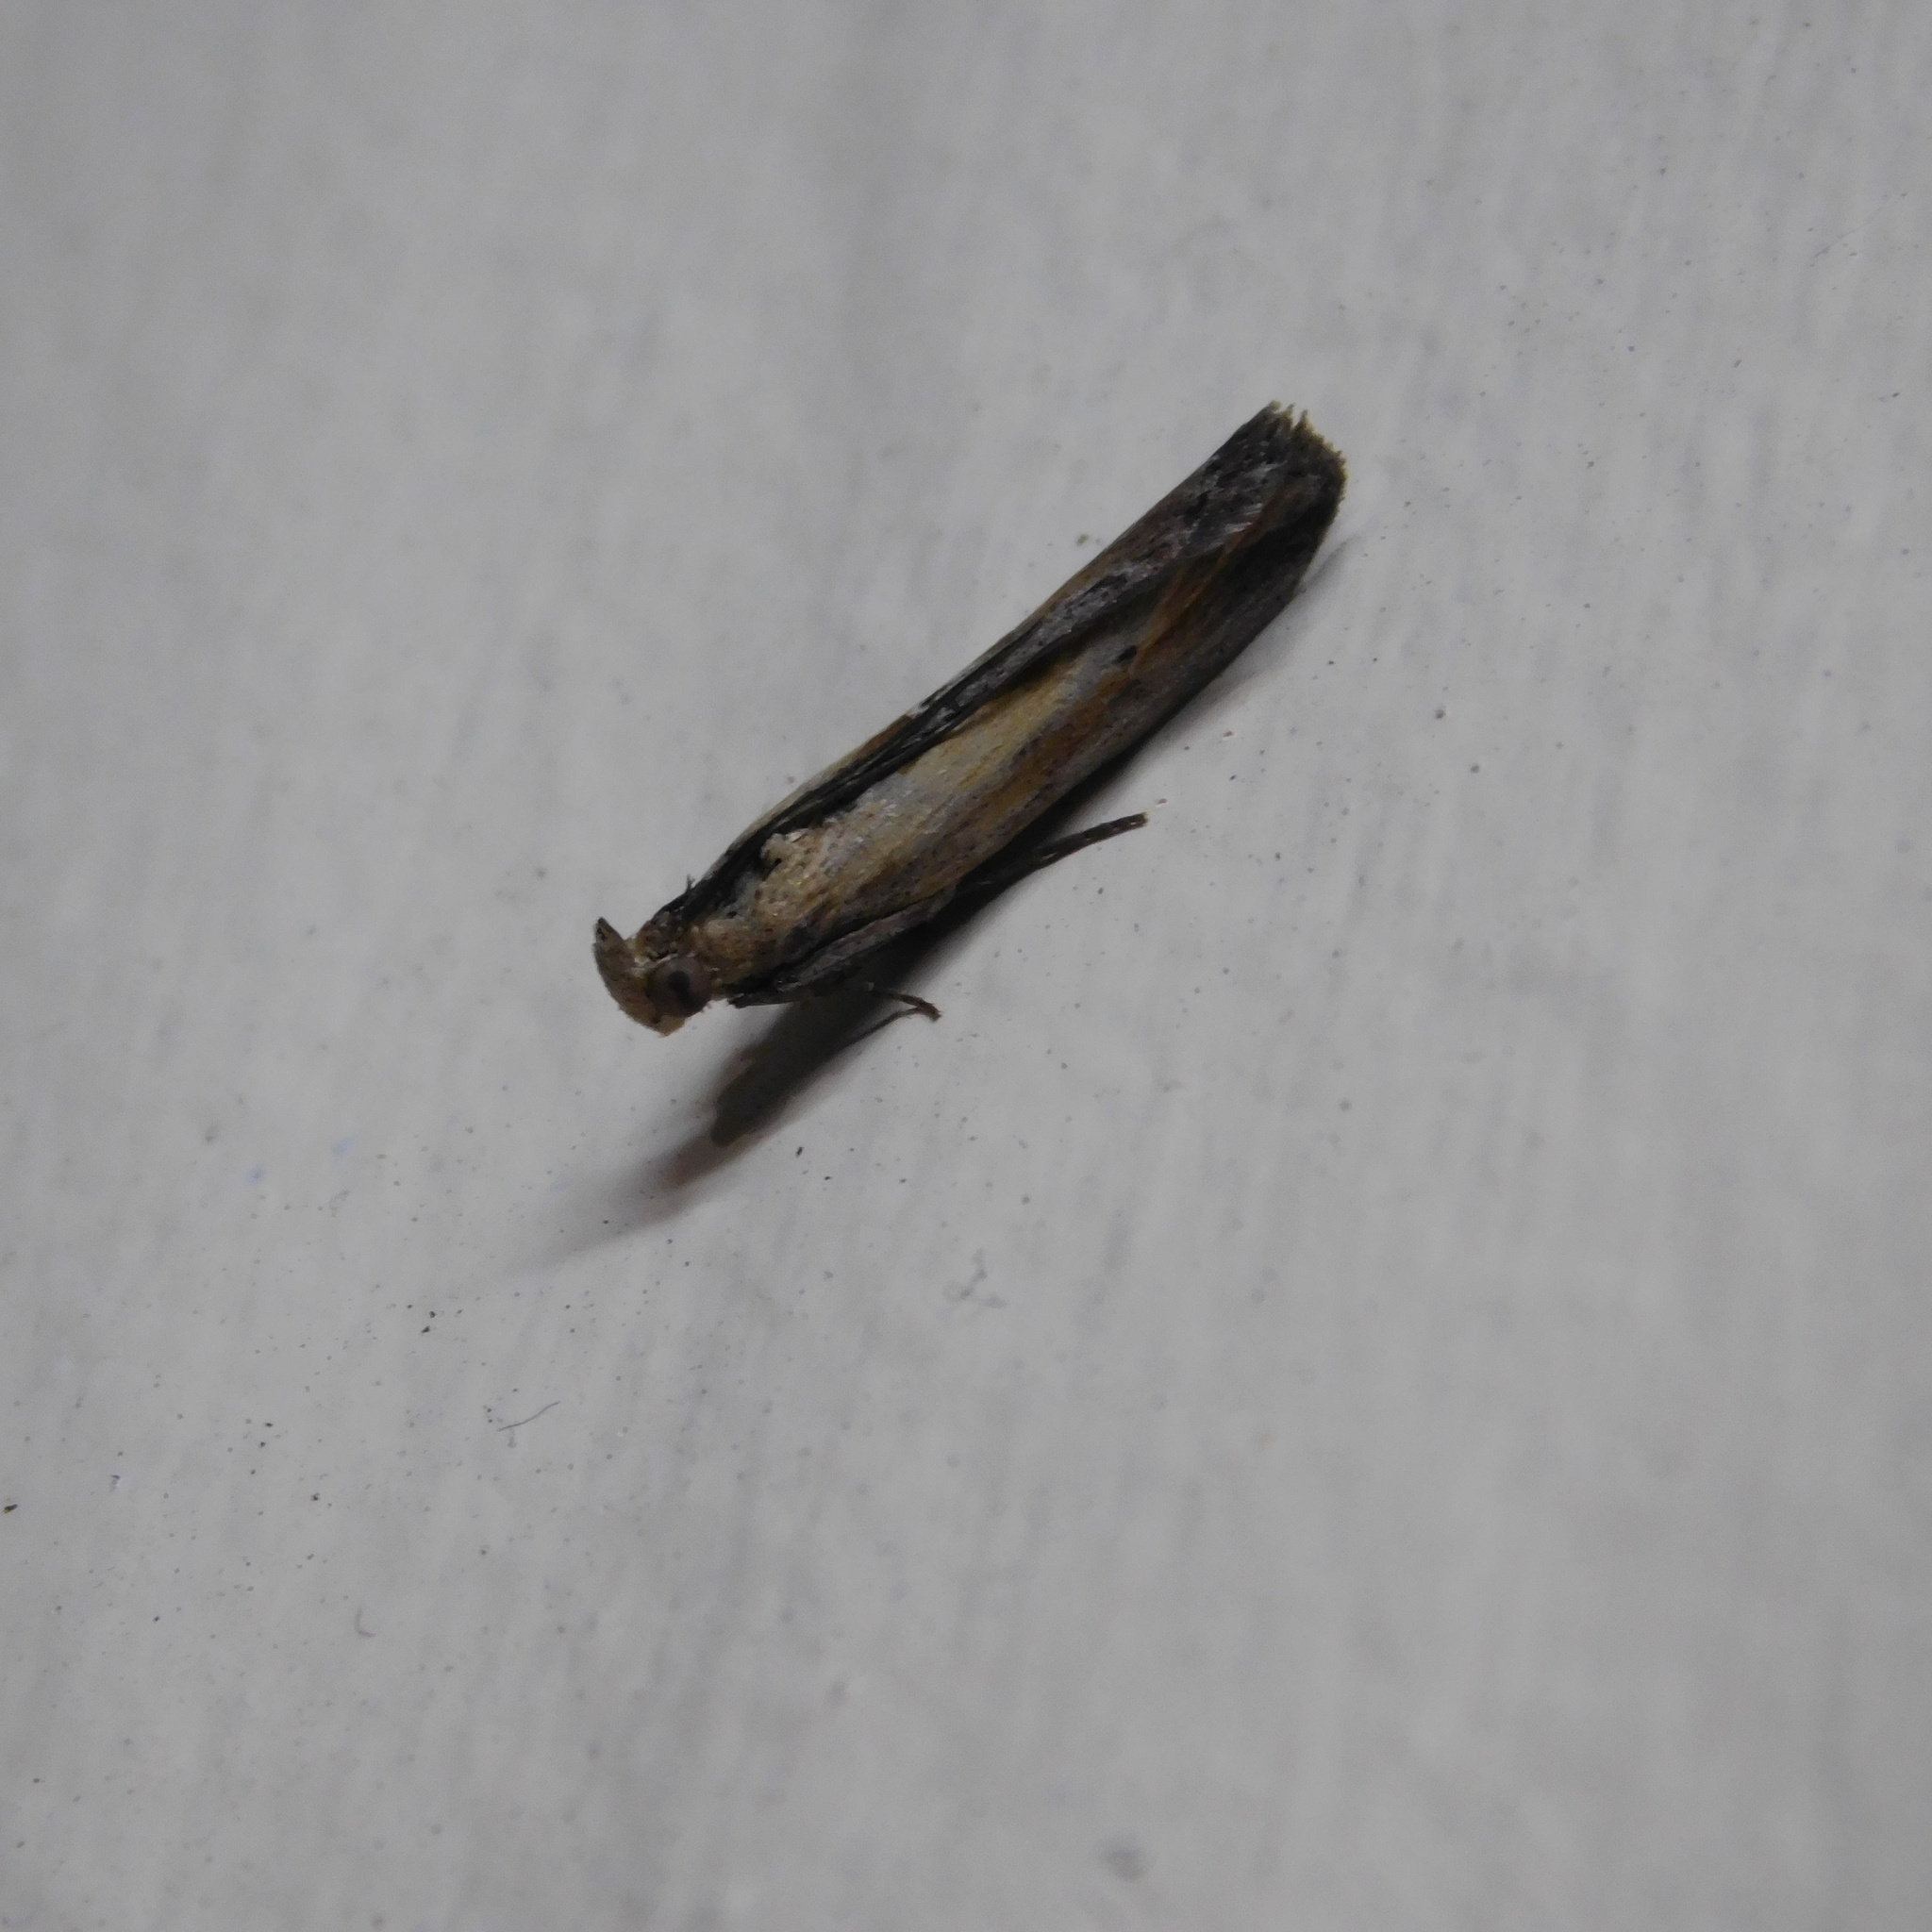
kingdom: Animalia
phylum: Arthropoda
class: Insecta
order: Lepidoptera
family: Pyralidae
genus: Morosaphycita
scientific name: Morosaphycita oculiferella
